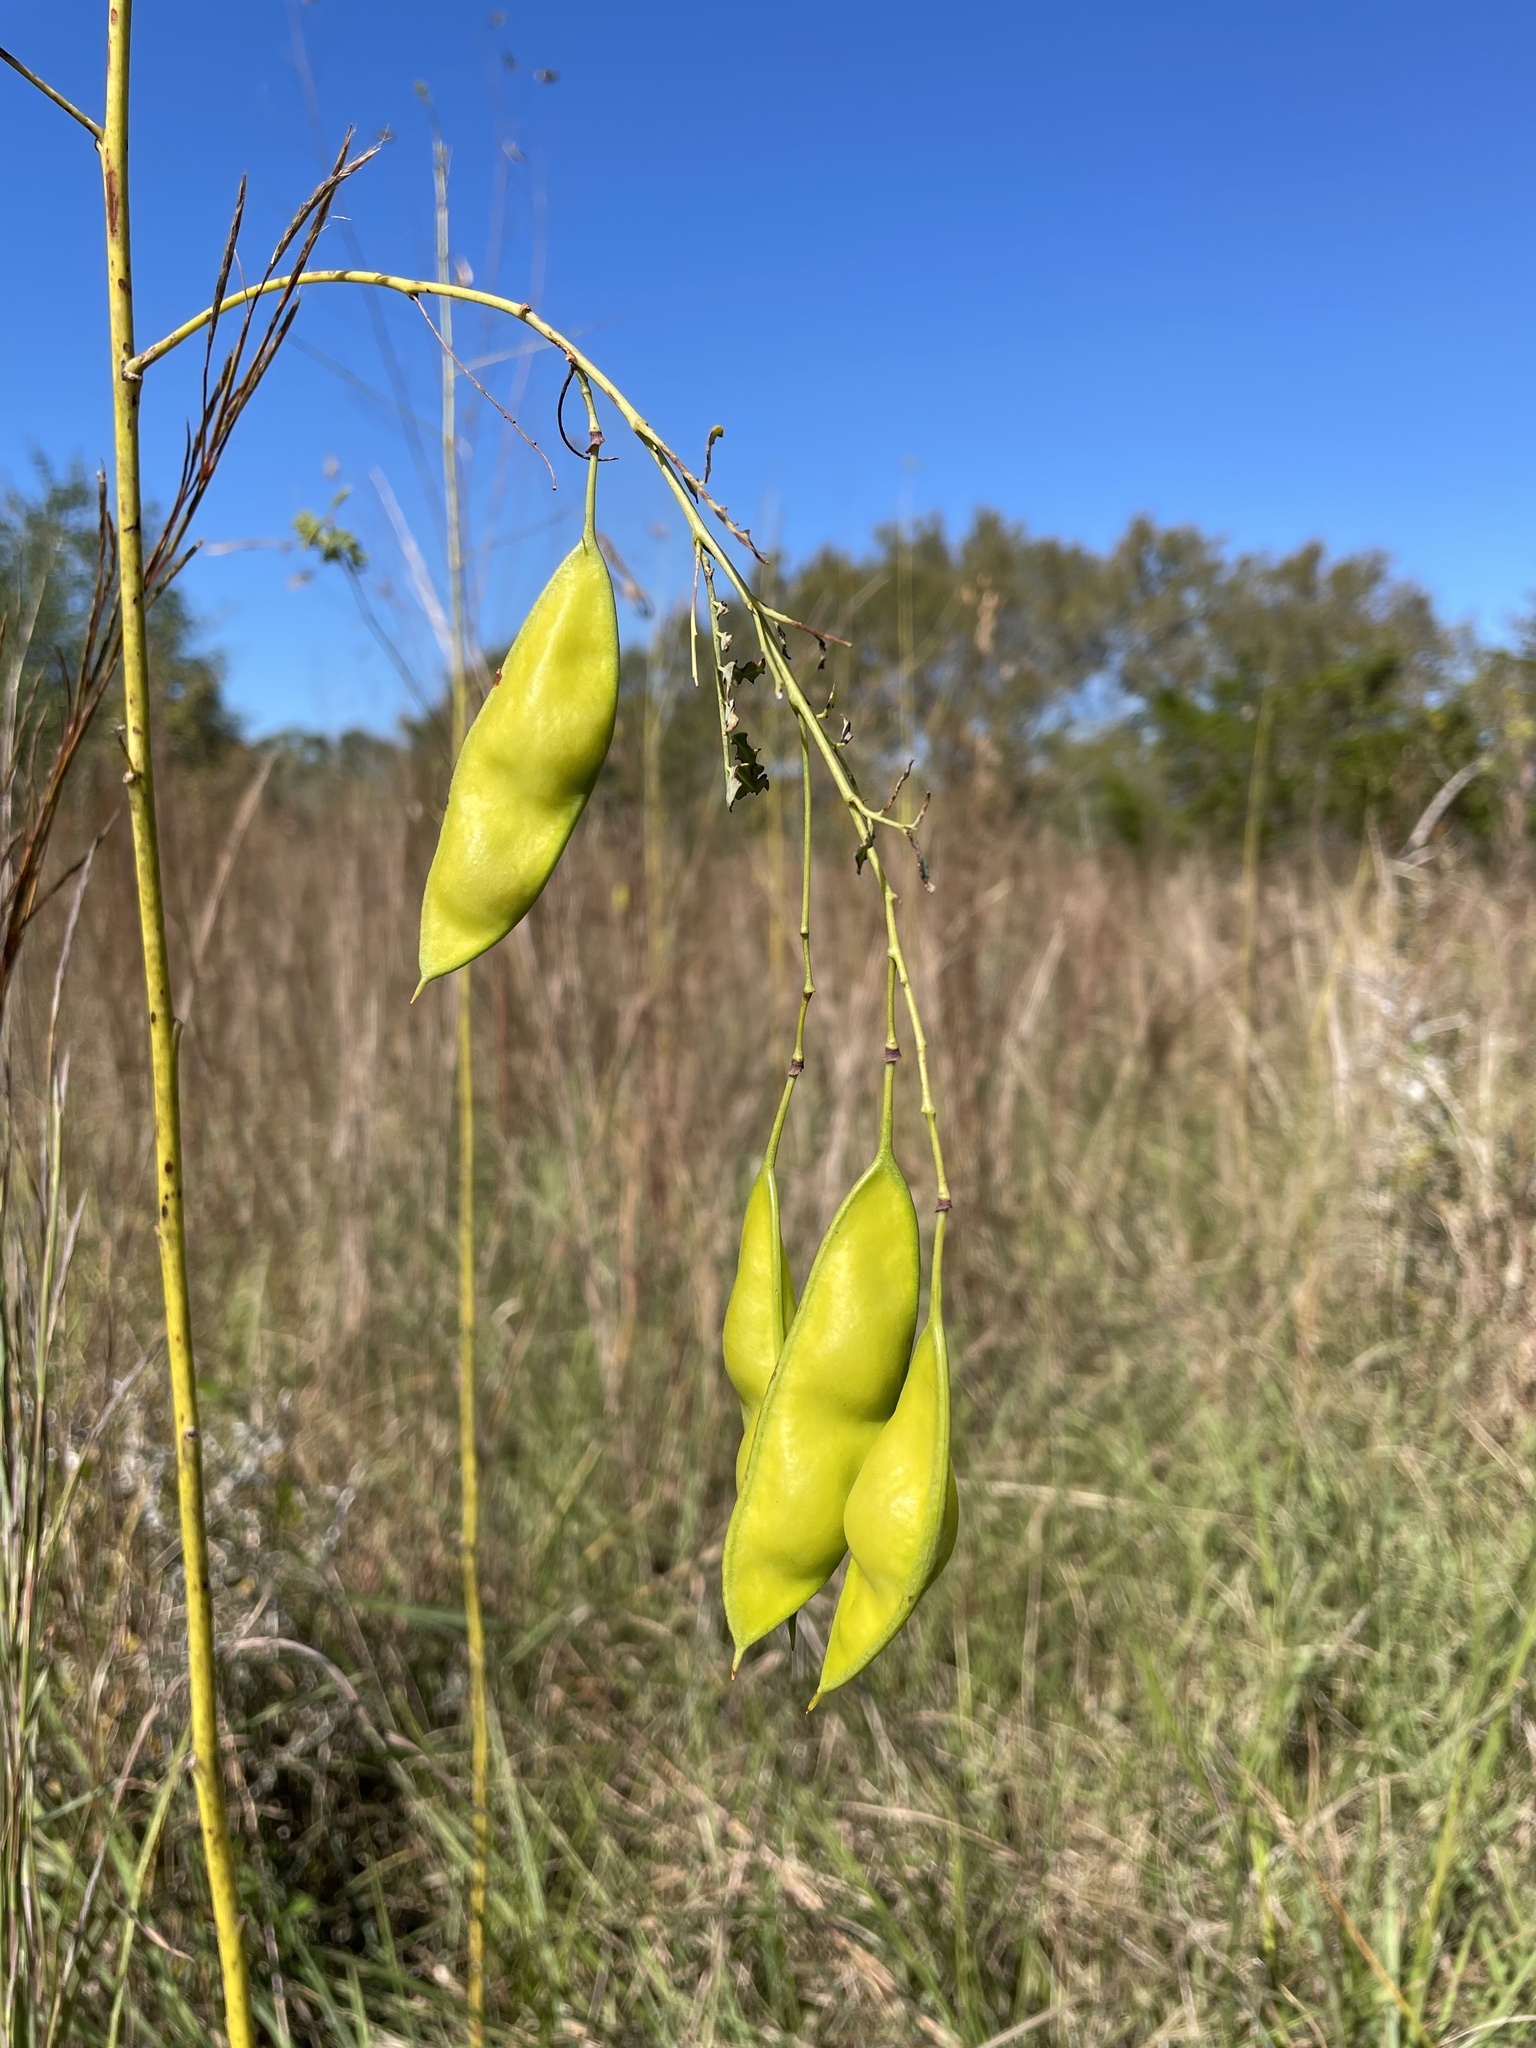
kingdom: Plantae
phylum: Tracheophyta
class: Magnoliopsida
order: Fabales
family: Fabaceae
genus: Sesbania
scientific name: Sesbania vesicaria
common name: Bagpod
